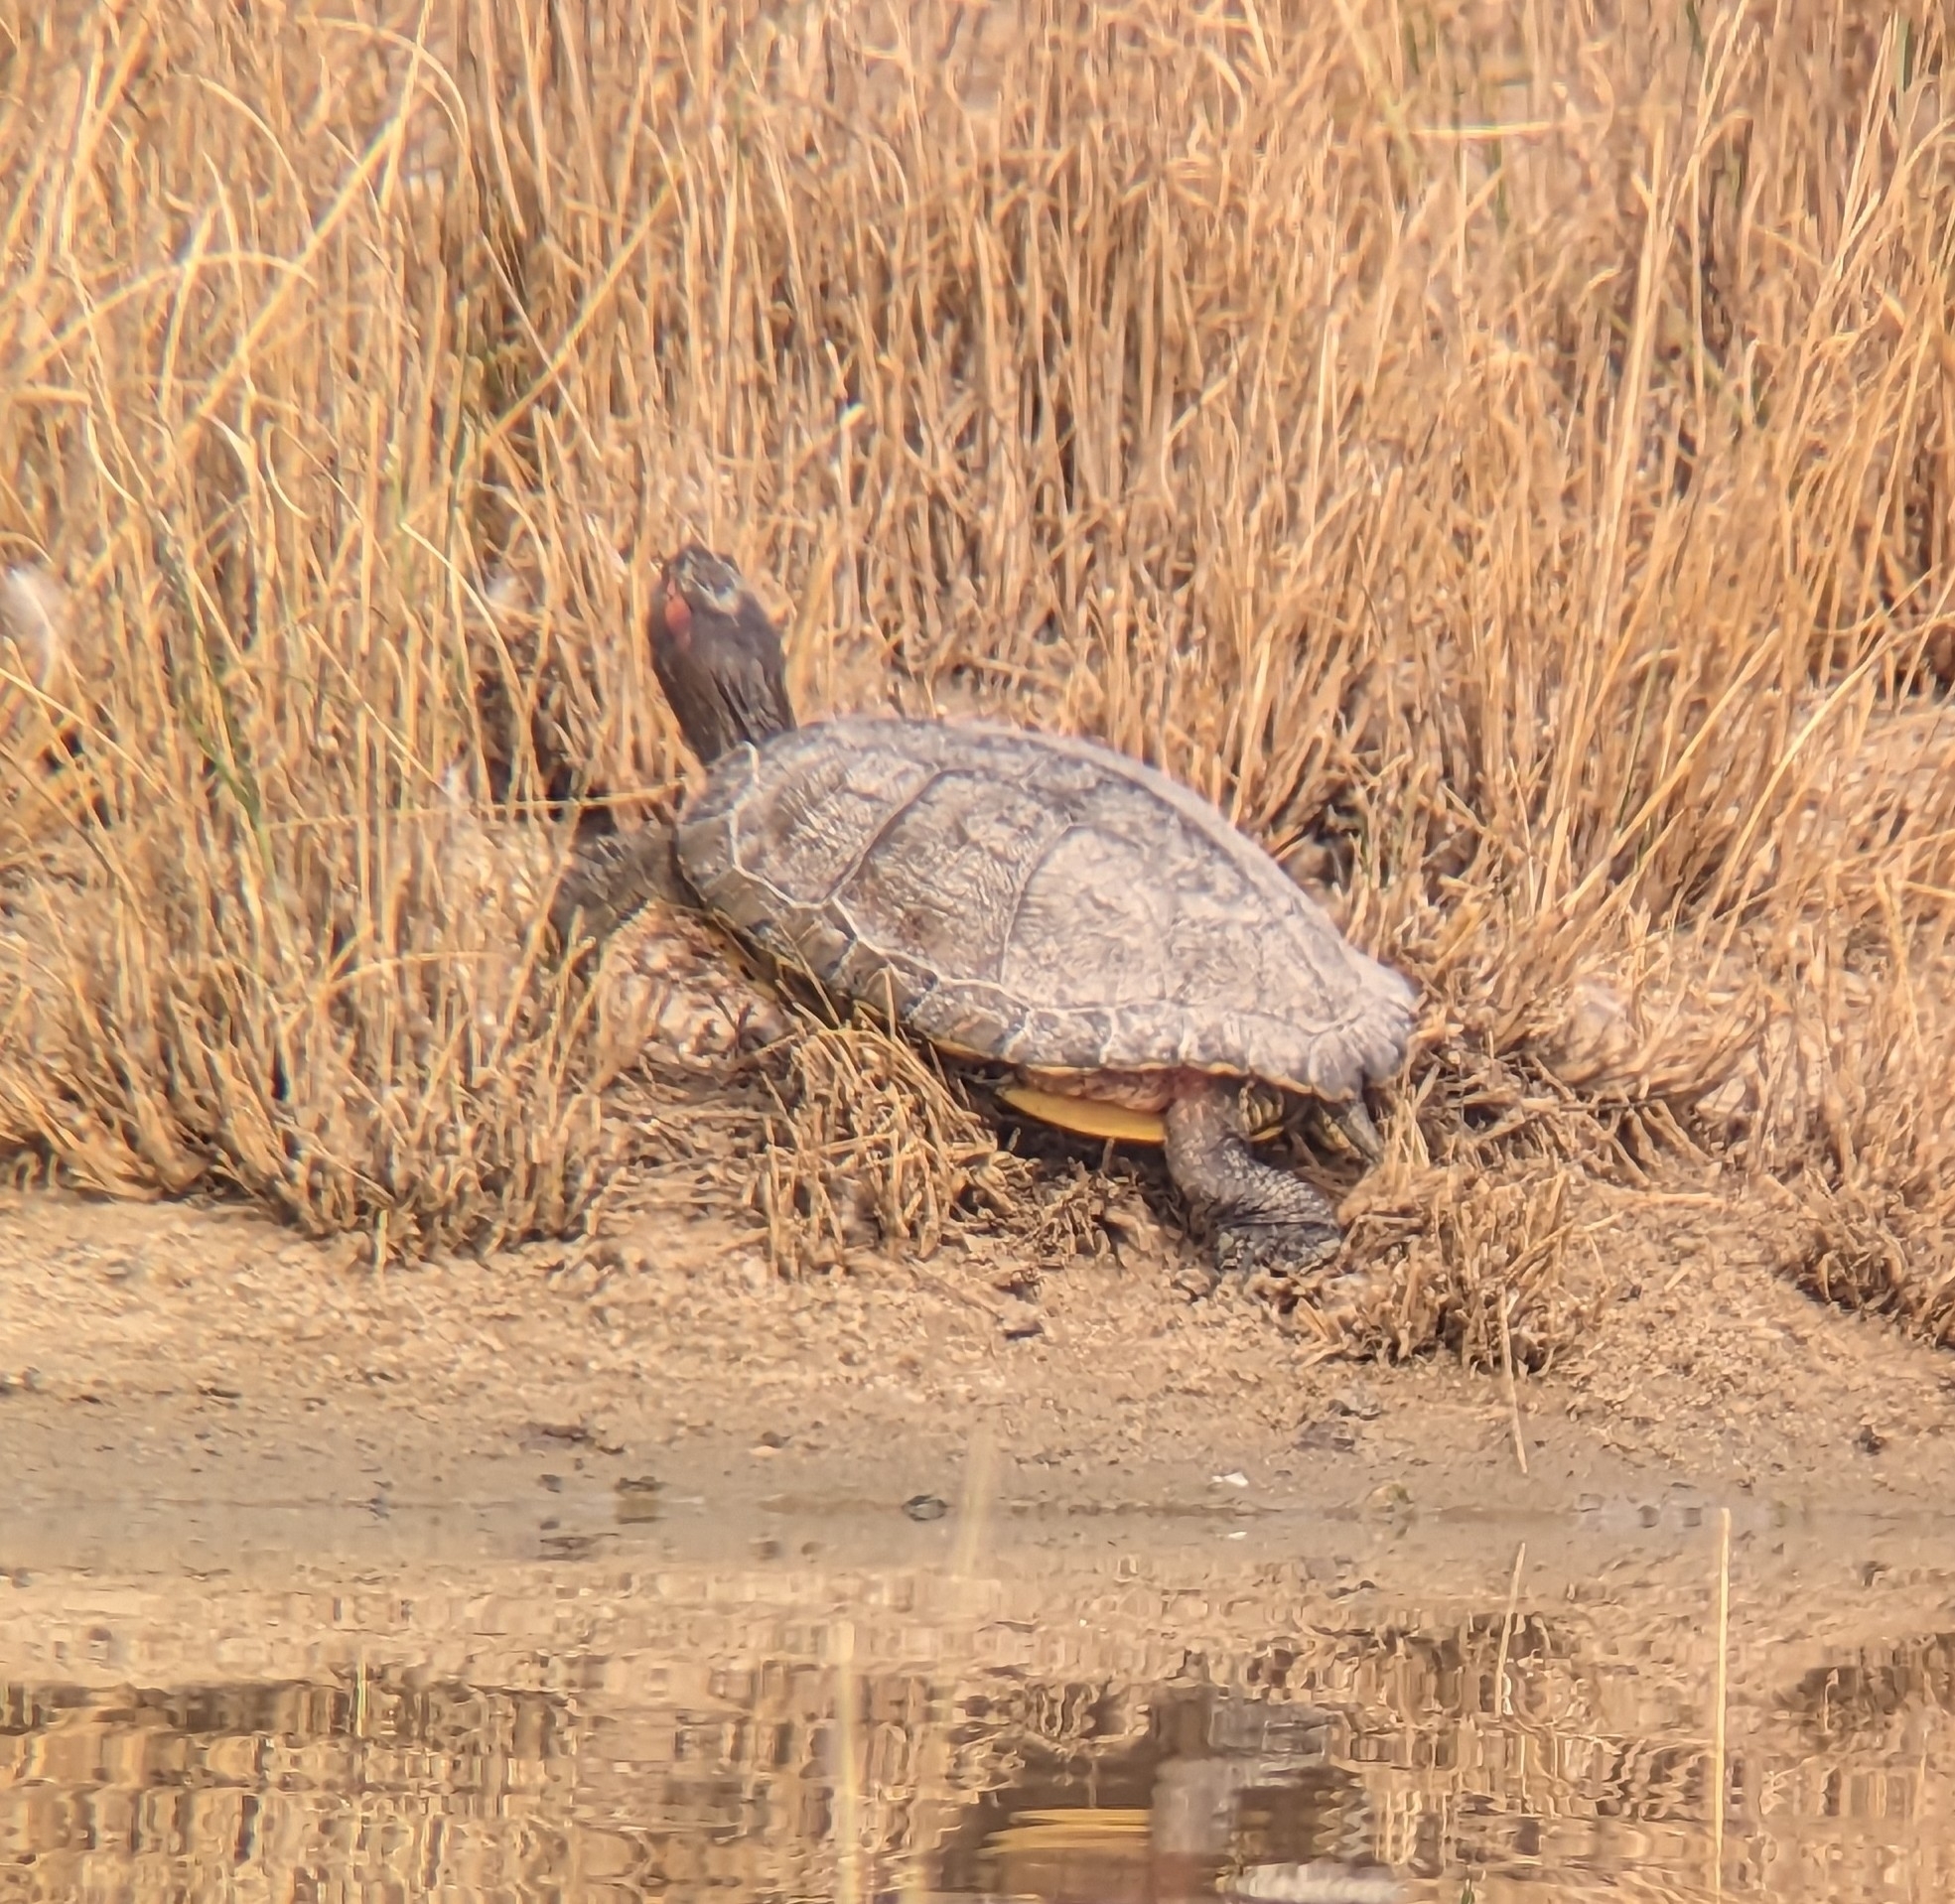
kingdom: Animalia
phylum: Chordata
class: Testudines
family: Emydidae
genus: Trachemys
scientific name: Trachemys scripta
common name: Slider
